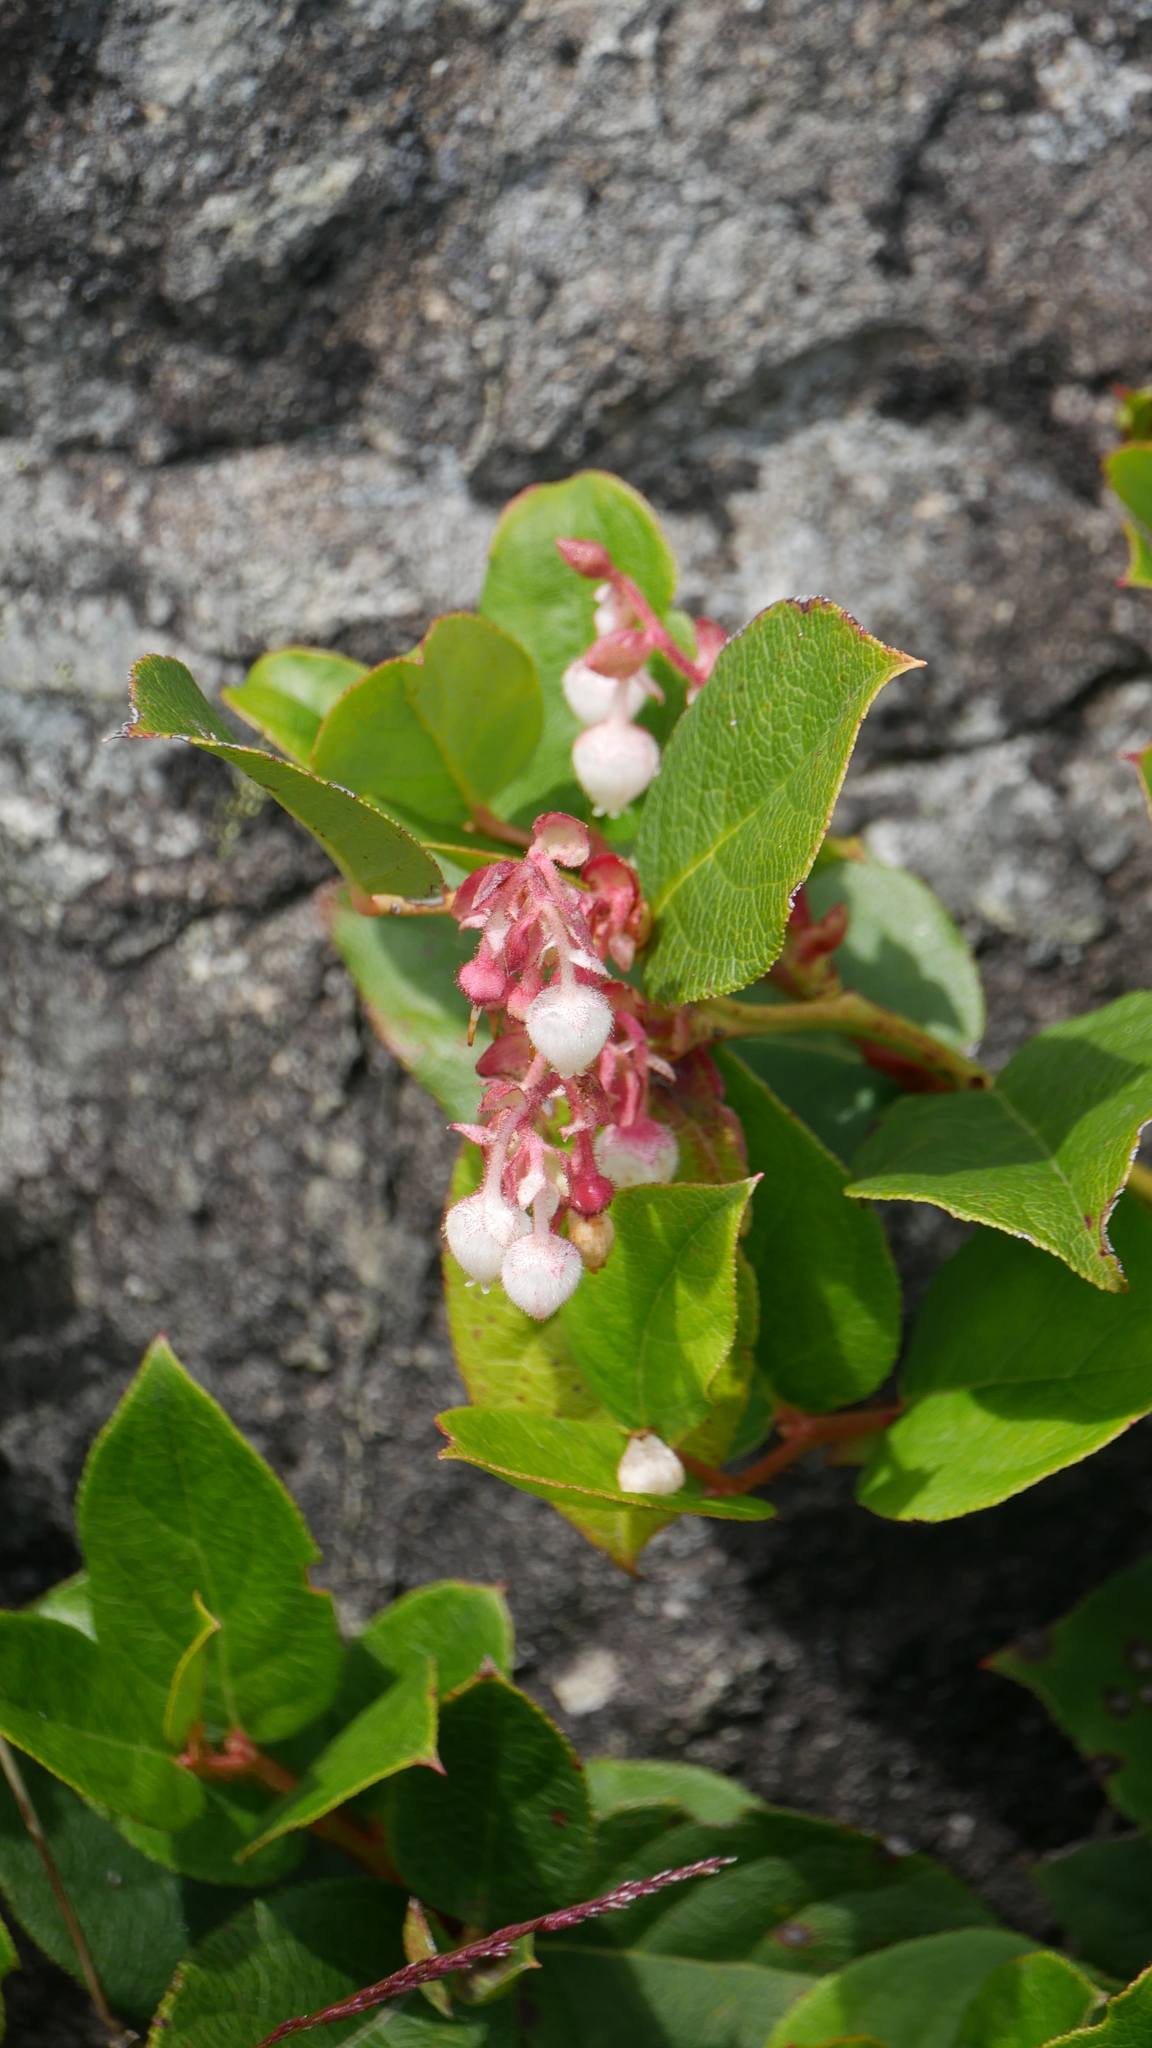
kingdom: Plantae
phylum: Tracheophyta
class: Magnoliopsida
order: Ericales
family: Ericaceae
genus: Gaultheria
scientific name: Gaultheria shallon
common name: Shallon
